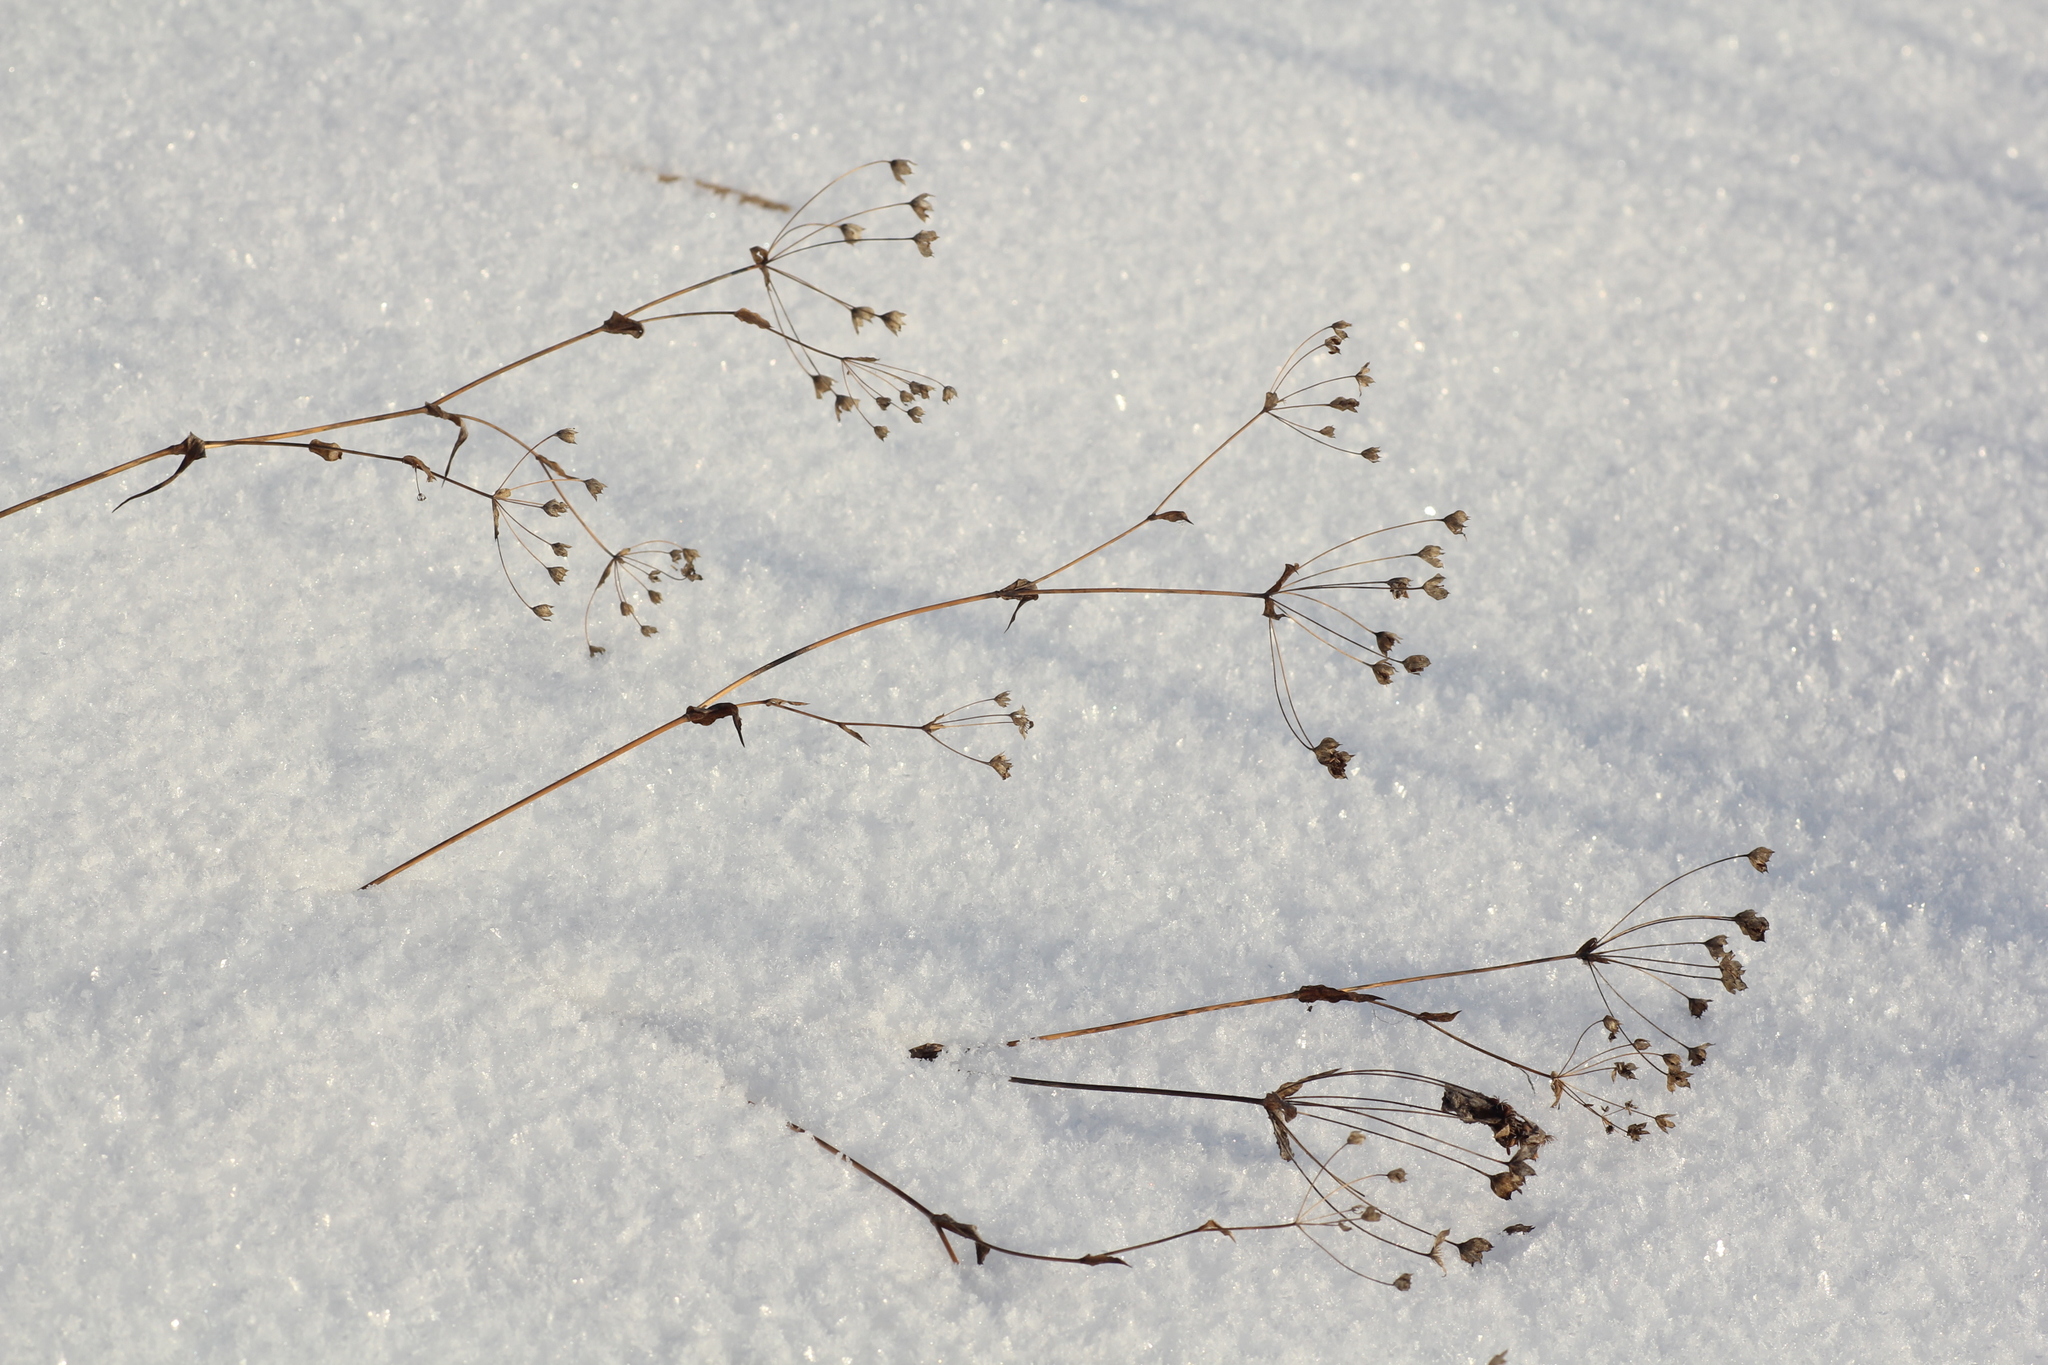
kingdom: Plantae
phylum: Tracheophyta
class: Magnoliopsida
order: Apiales
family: Apiaceae
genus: Bupleurum
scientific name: Bupleurum multinerve
